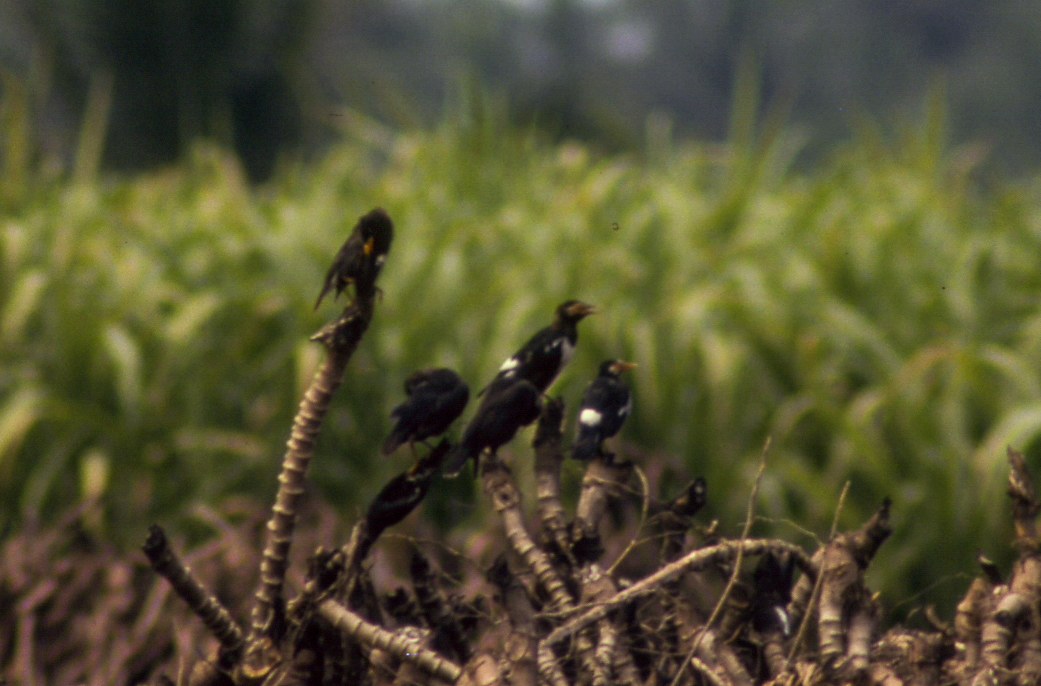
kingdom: Animalia
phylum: Chordata
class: Aves
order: Passeriformes
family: Sturnidae
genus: Gracupica
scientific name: Gracupica contra
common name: Pied myna
